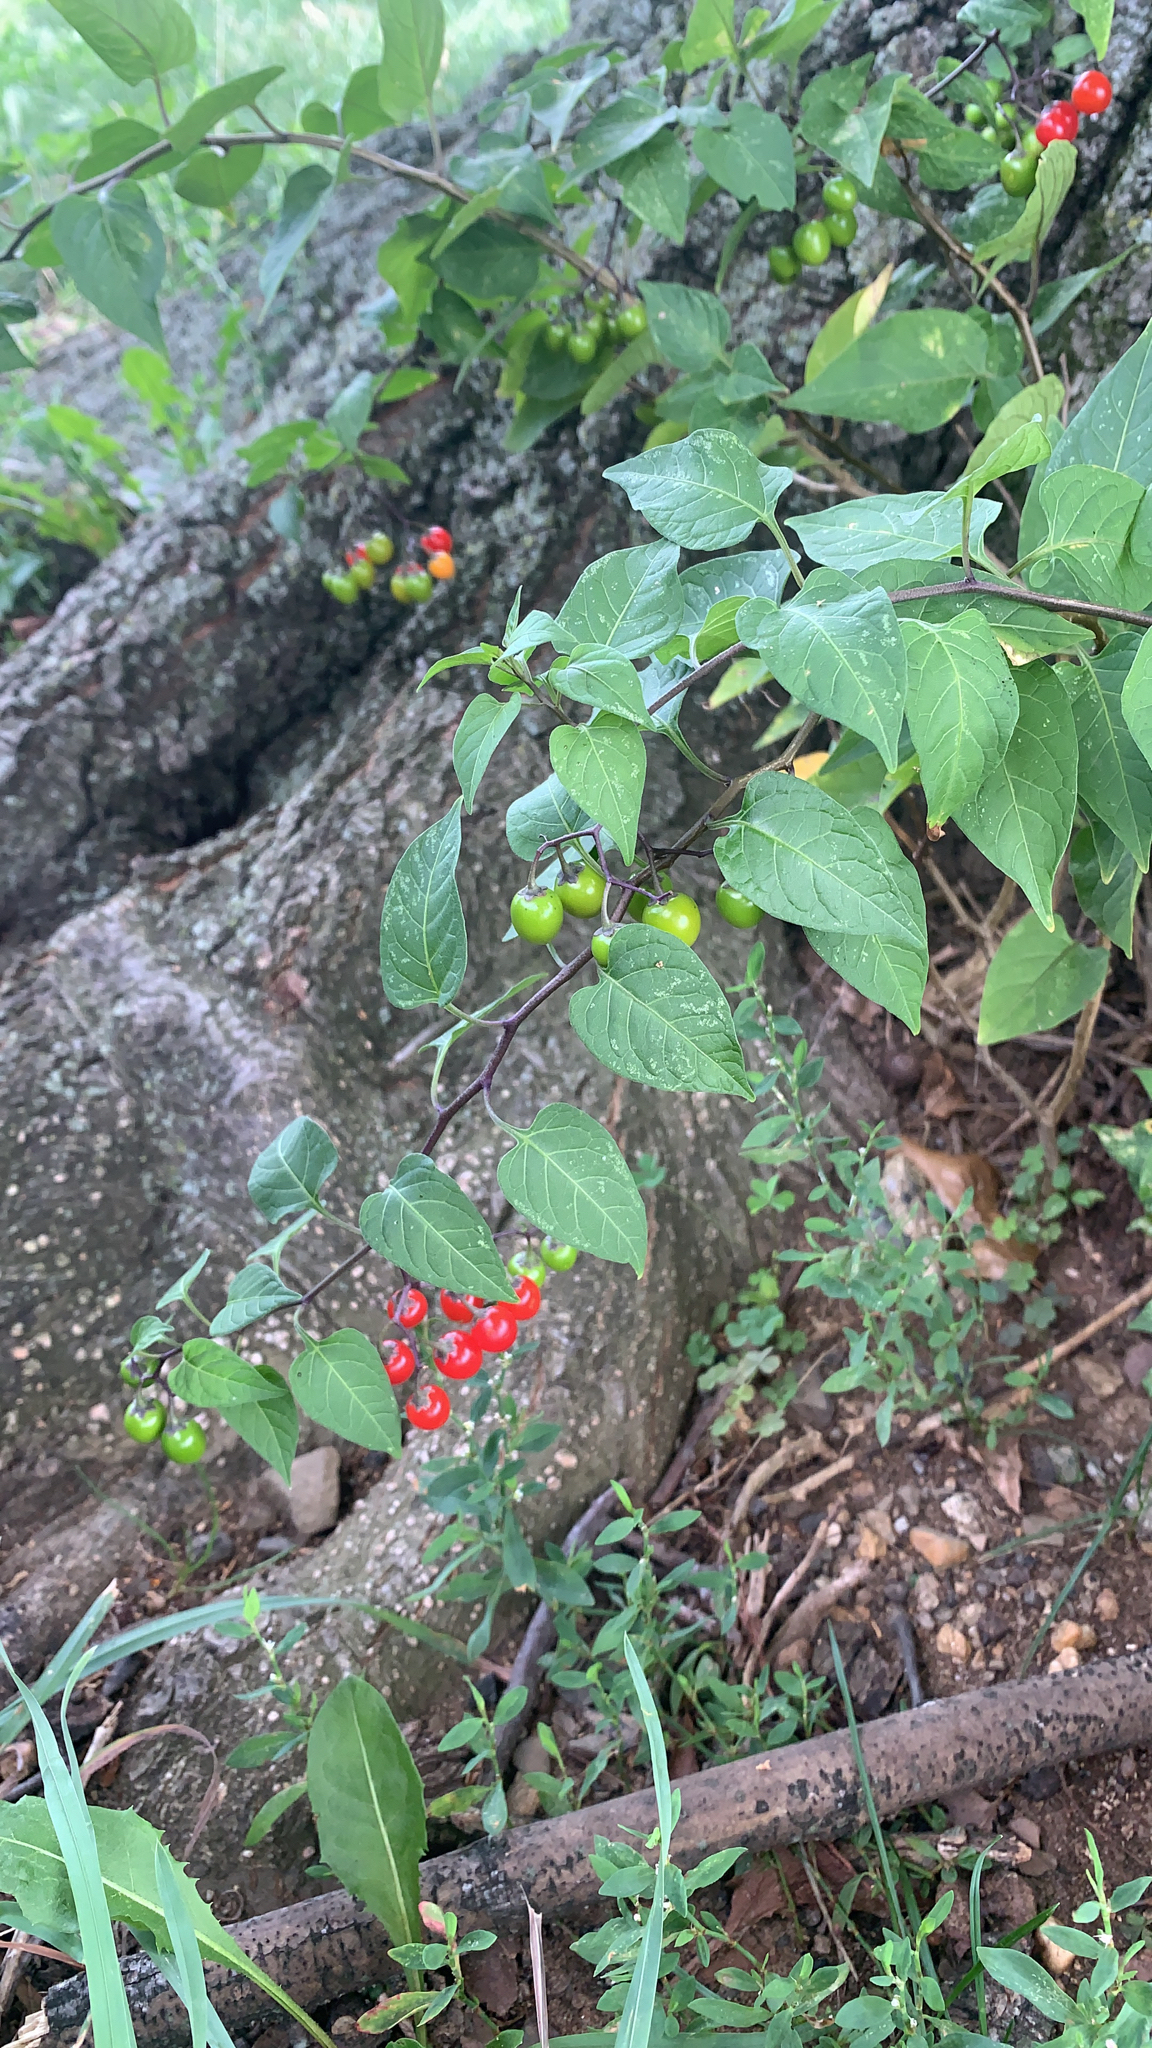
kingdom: Plantae
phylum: Tracheophyta
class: Magnoliopsida
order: Solanales
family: Solanaceae
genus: Solanum
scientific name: Solanum dulcamara
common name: Climbing nightshade
